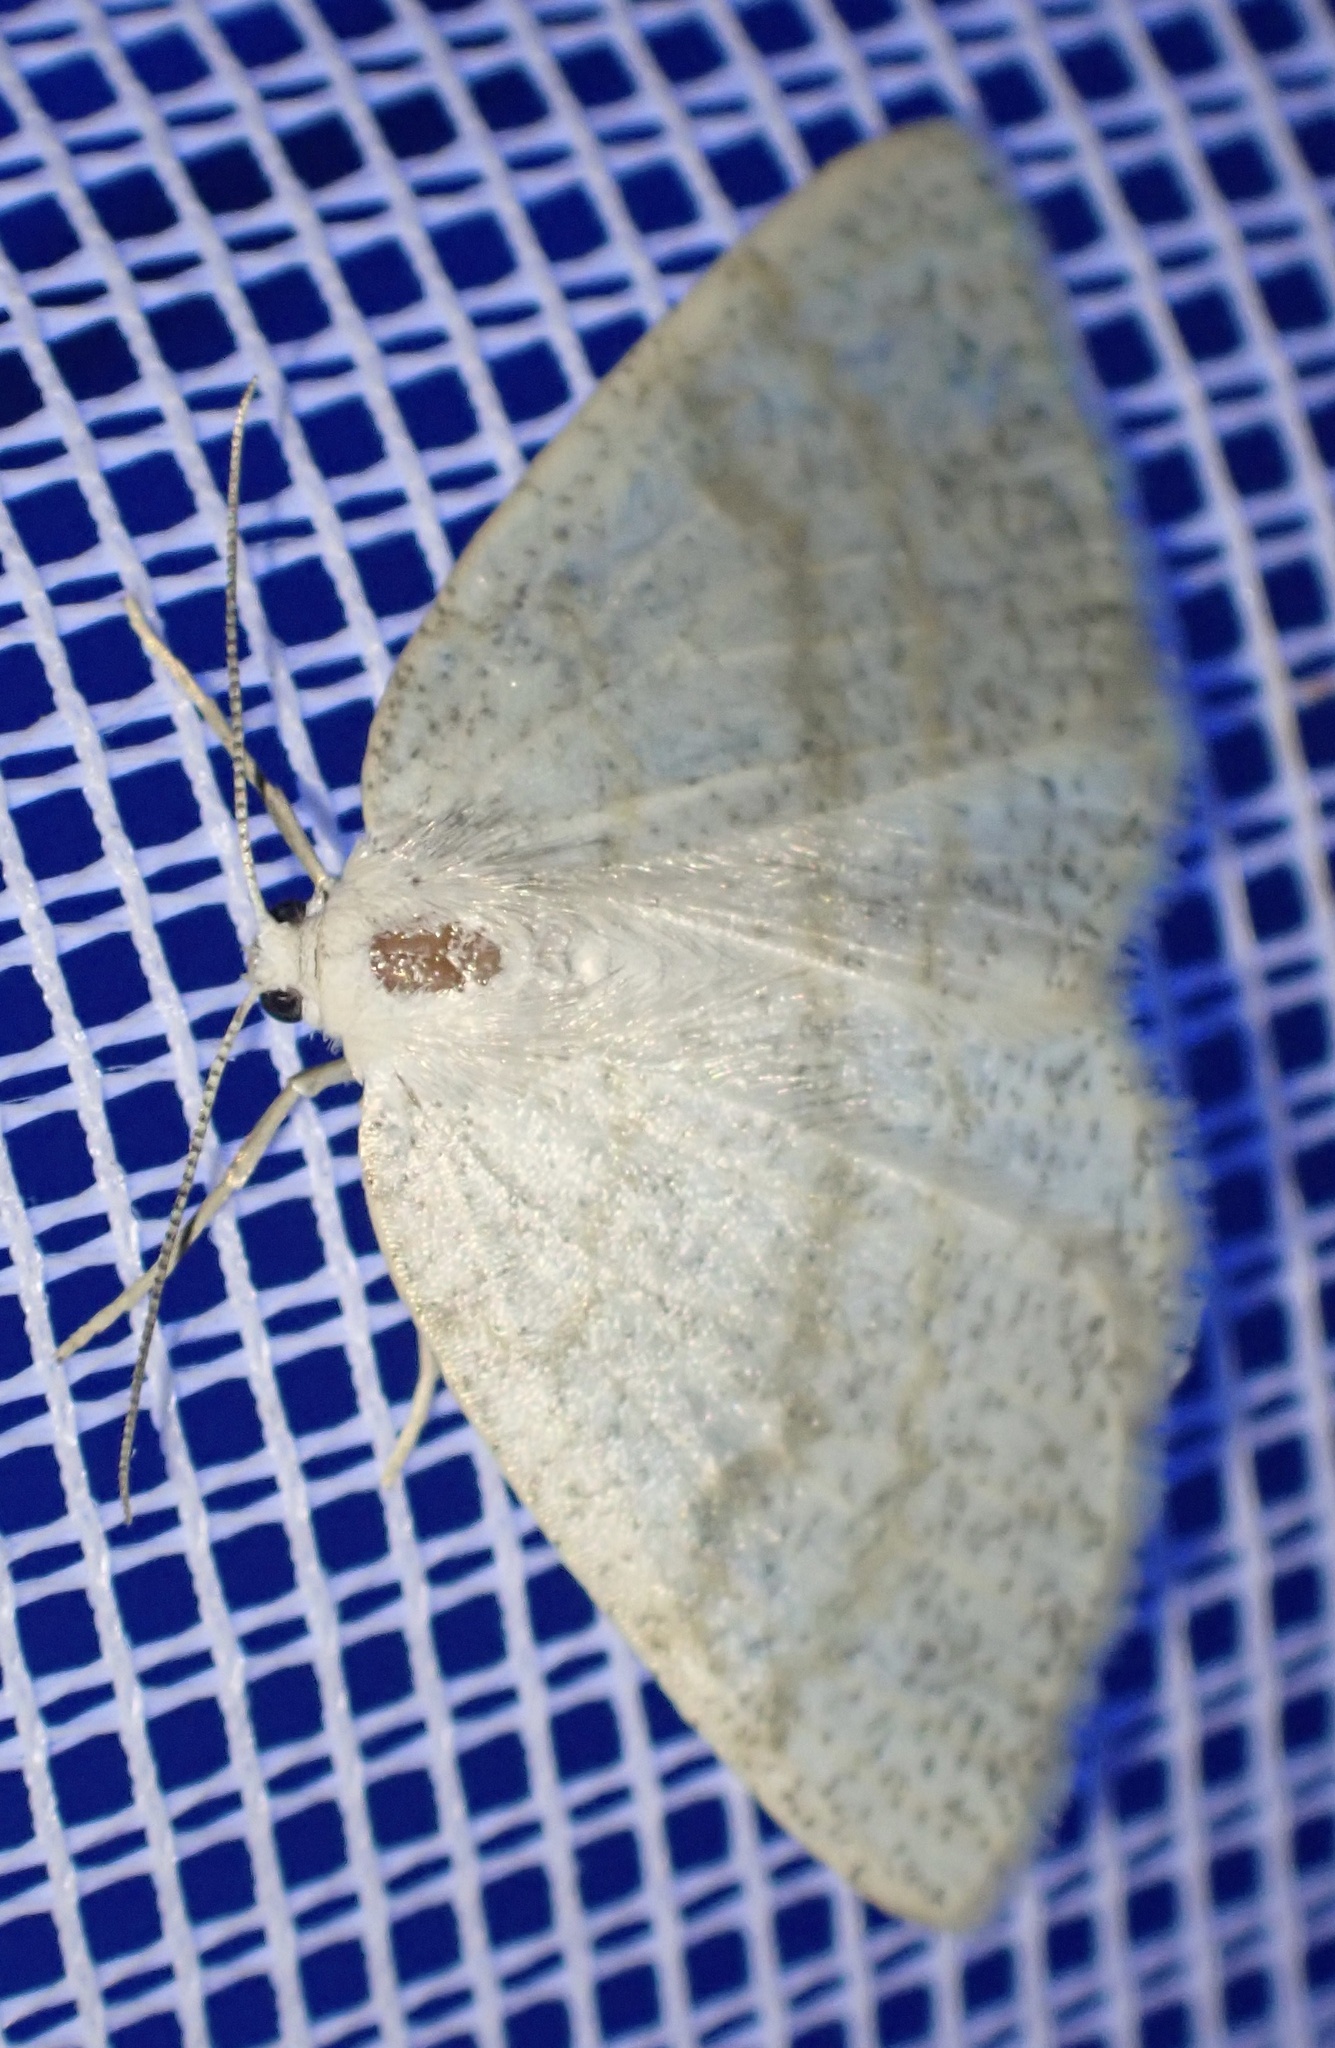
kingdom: Animalia
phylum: Arthropoda
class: Insecta
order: Lepidoptera
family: Geometridae
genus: Cabera
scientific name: Cabera exanthemata
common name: Common wave
